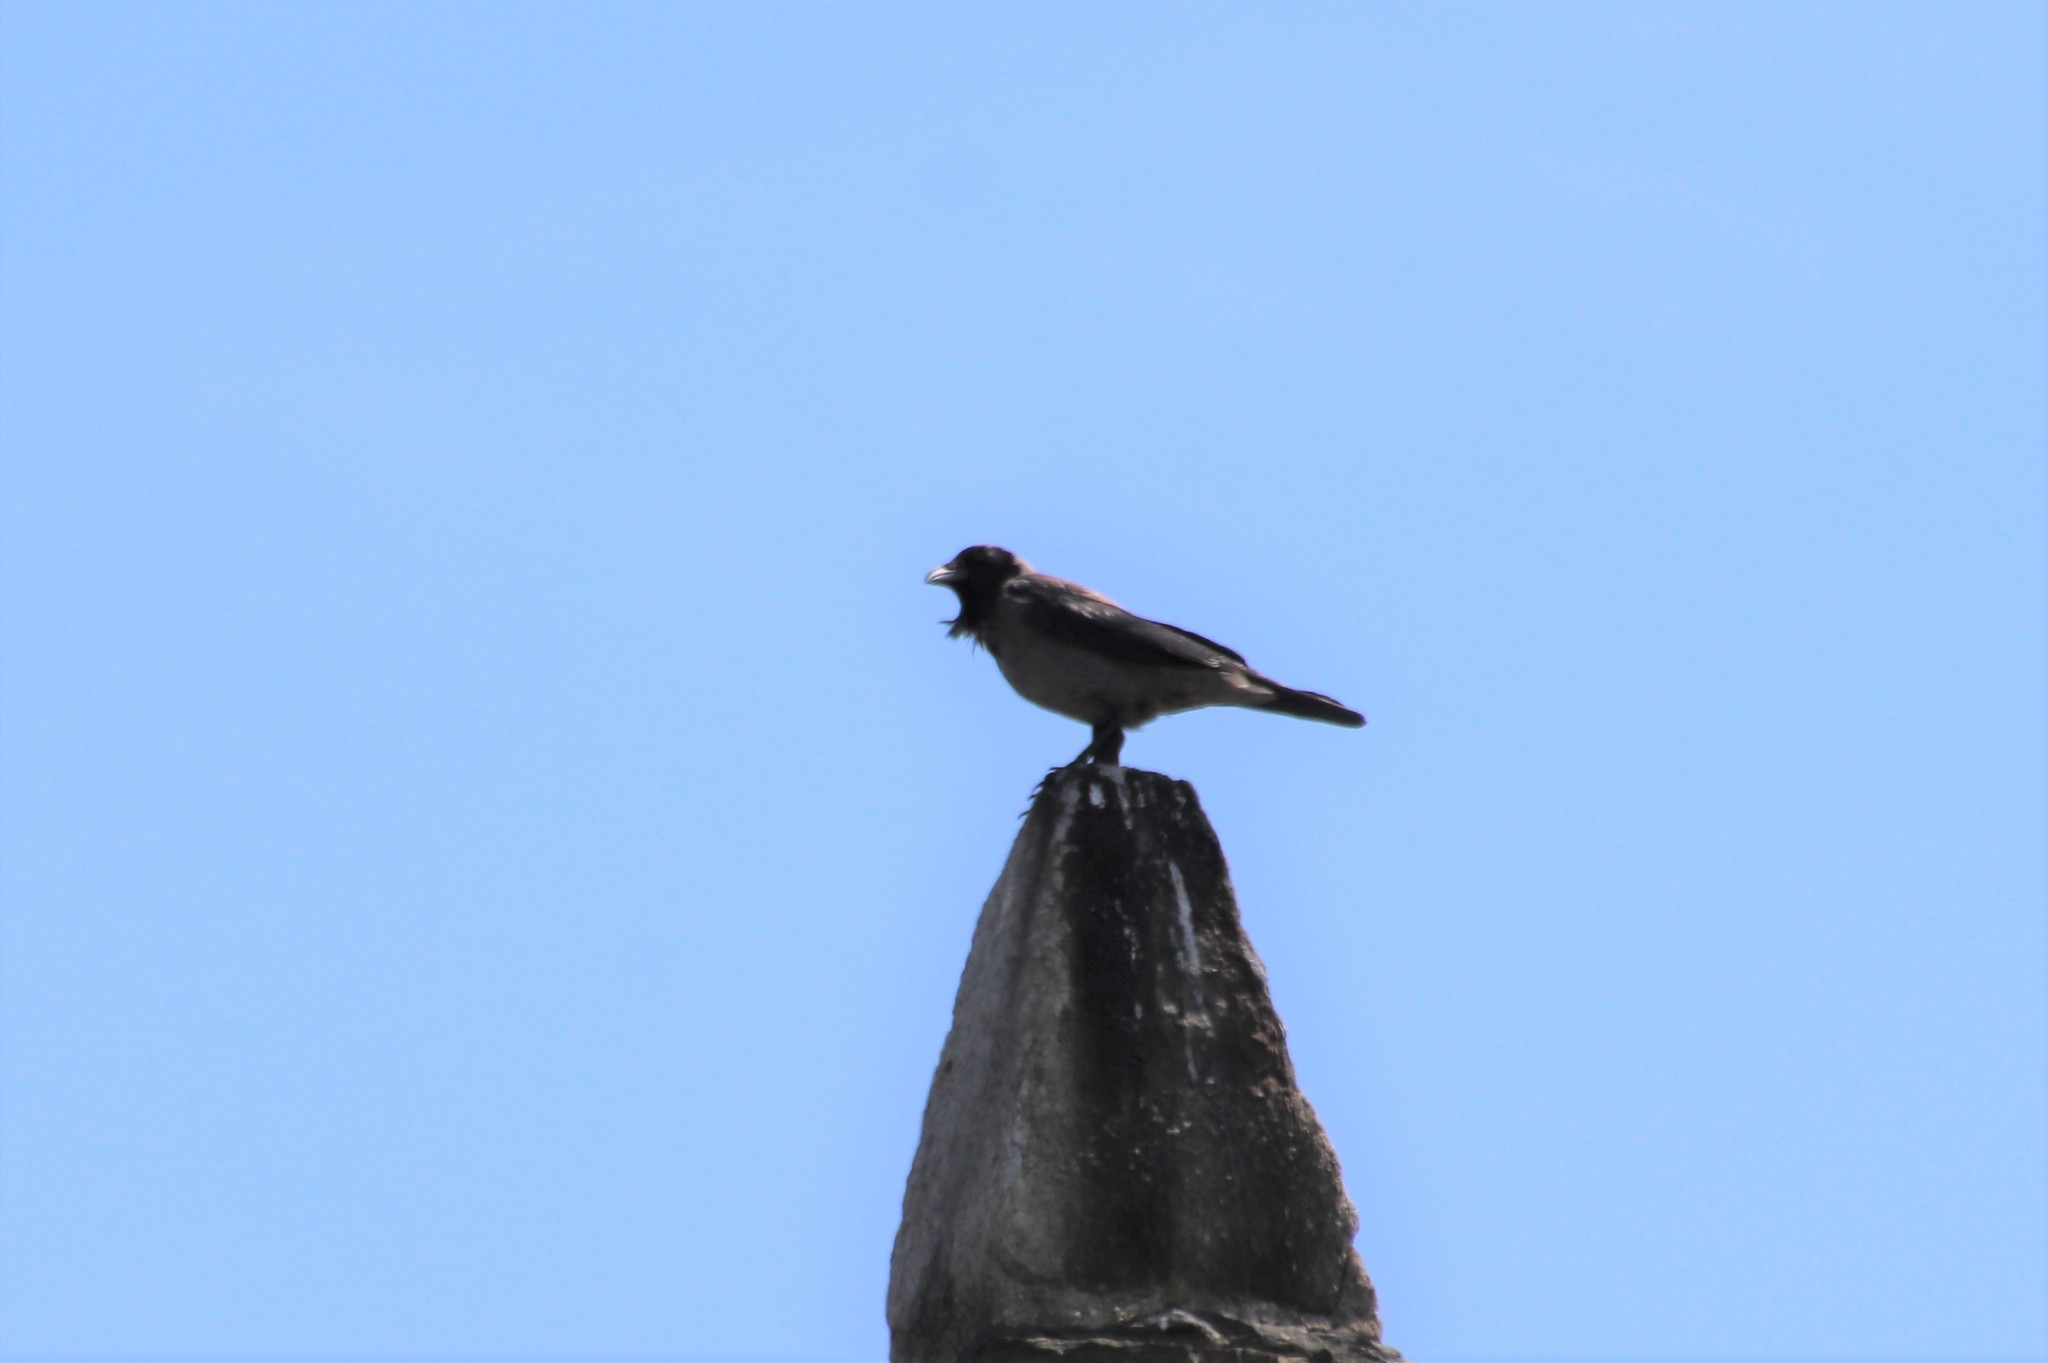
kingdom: Animalia
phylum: Chordata
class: Aves
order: Passeriformes
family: Corvidae
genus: Corvus
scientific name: Corvus cornix
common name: Hooded crow
